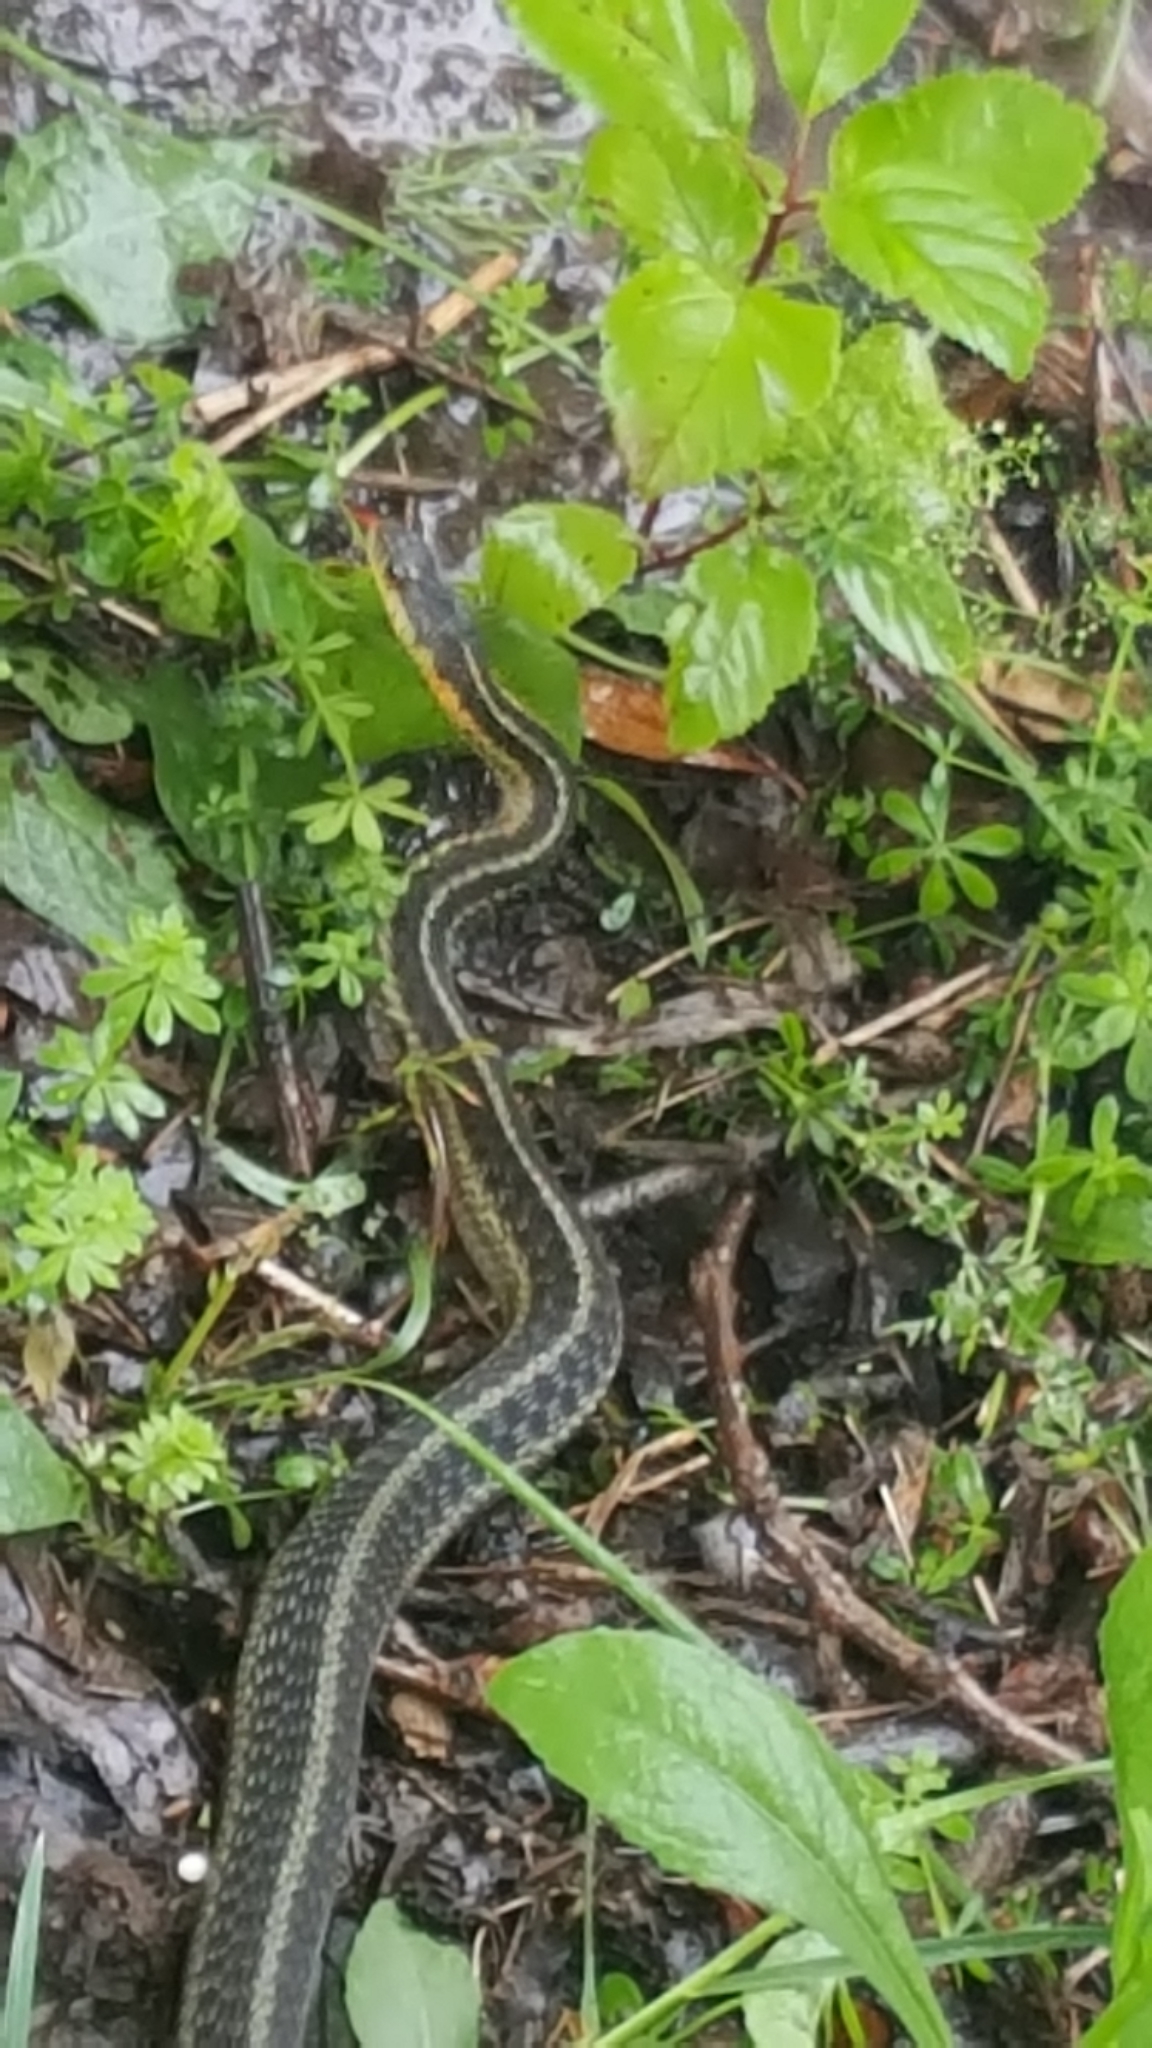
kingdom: Animalia
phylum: Chordata
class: Squamata
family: Colubridae
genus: Thamnophis
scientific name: Thamnophis sirtalis
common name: Common garter snake
